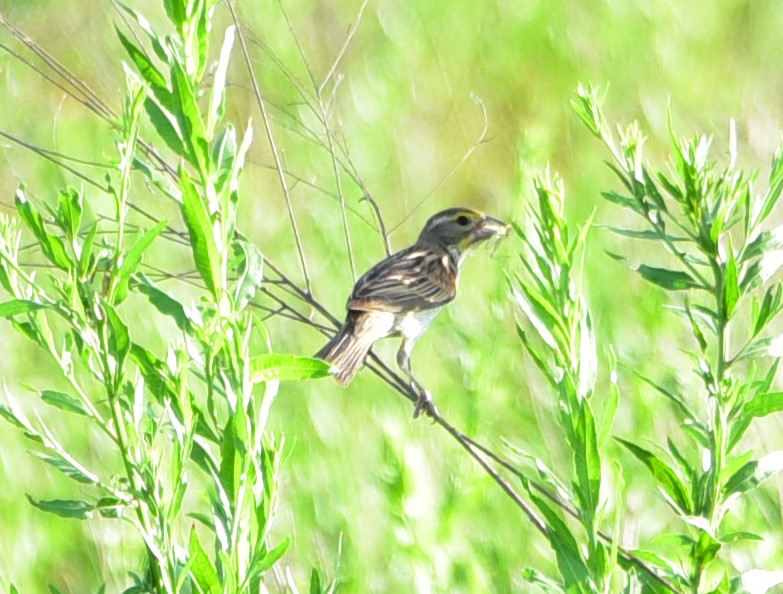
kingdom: Animalia
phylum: Chordata
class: Aves
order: Passeriformes
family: Cardinalidae
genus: Spiza
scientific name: Spiza americana
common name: Dickcissel
